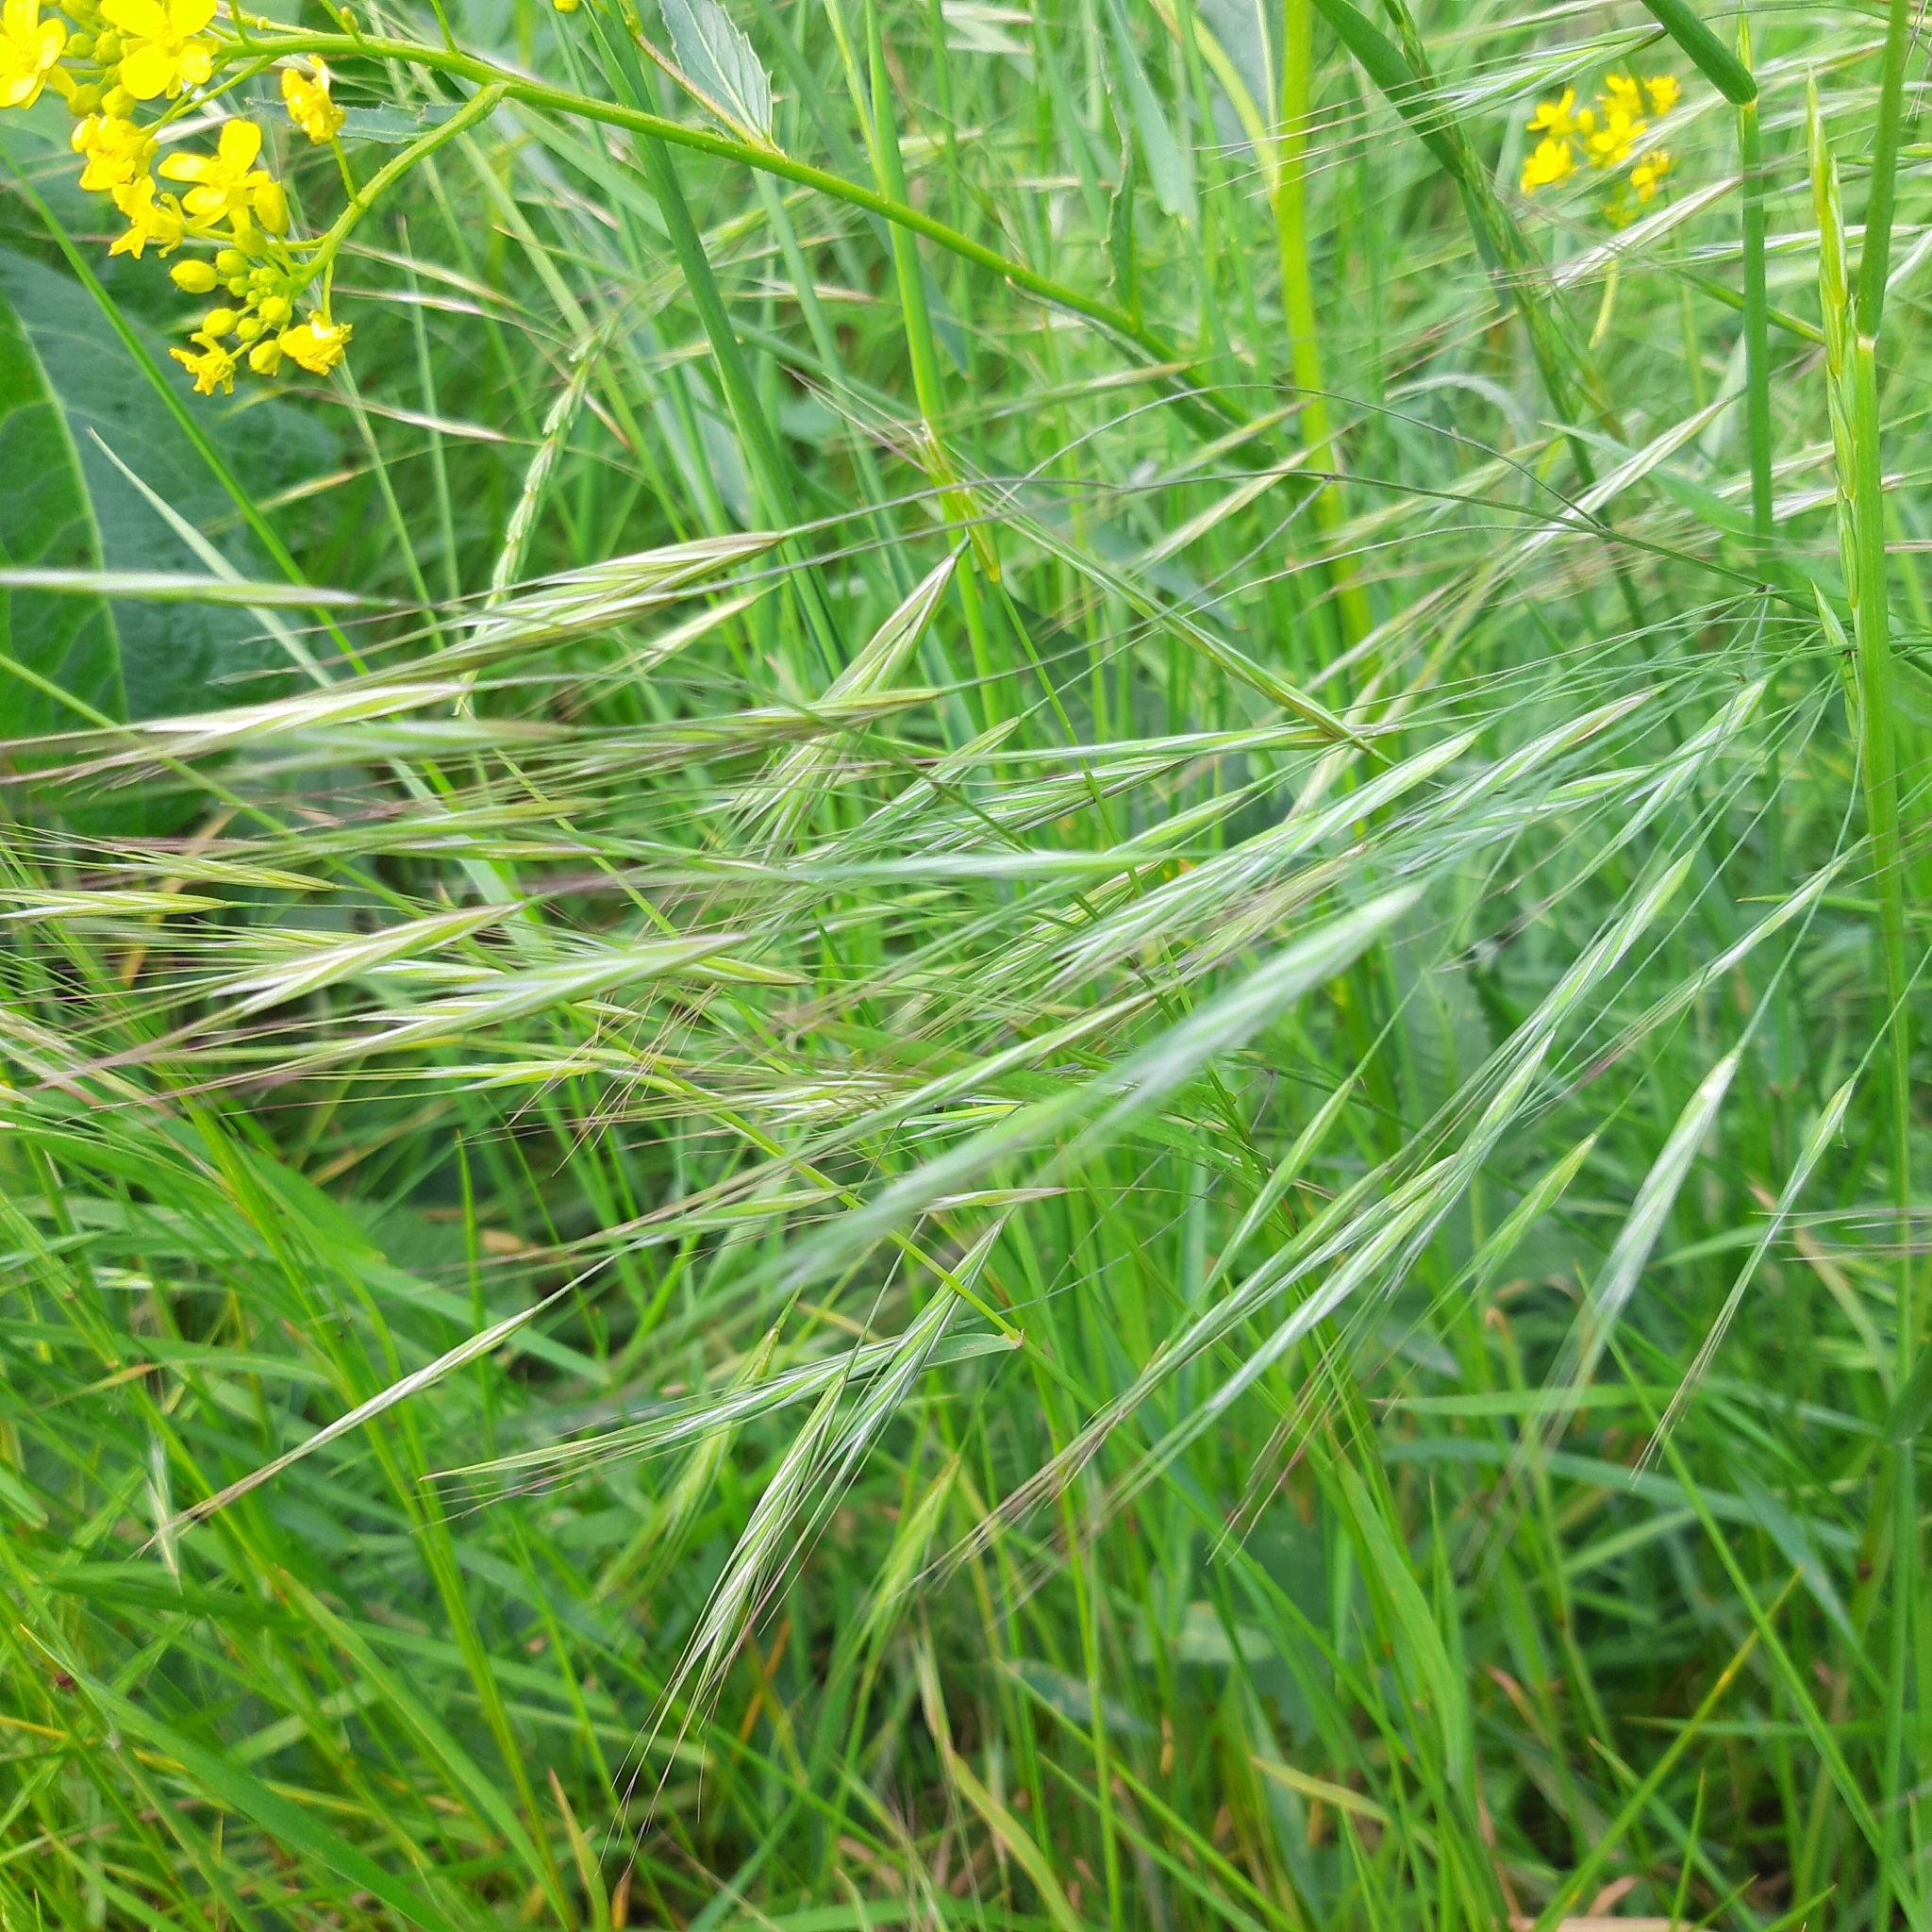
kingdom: Plantae
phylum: Tracheophyta
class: Liliopsida
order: Poales
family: Poaceae
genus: Bromus
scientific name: Bromus sterilis
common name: Poverty brome
